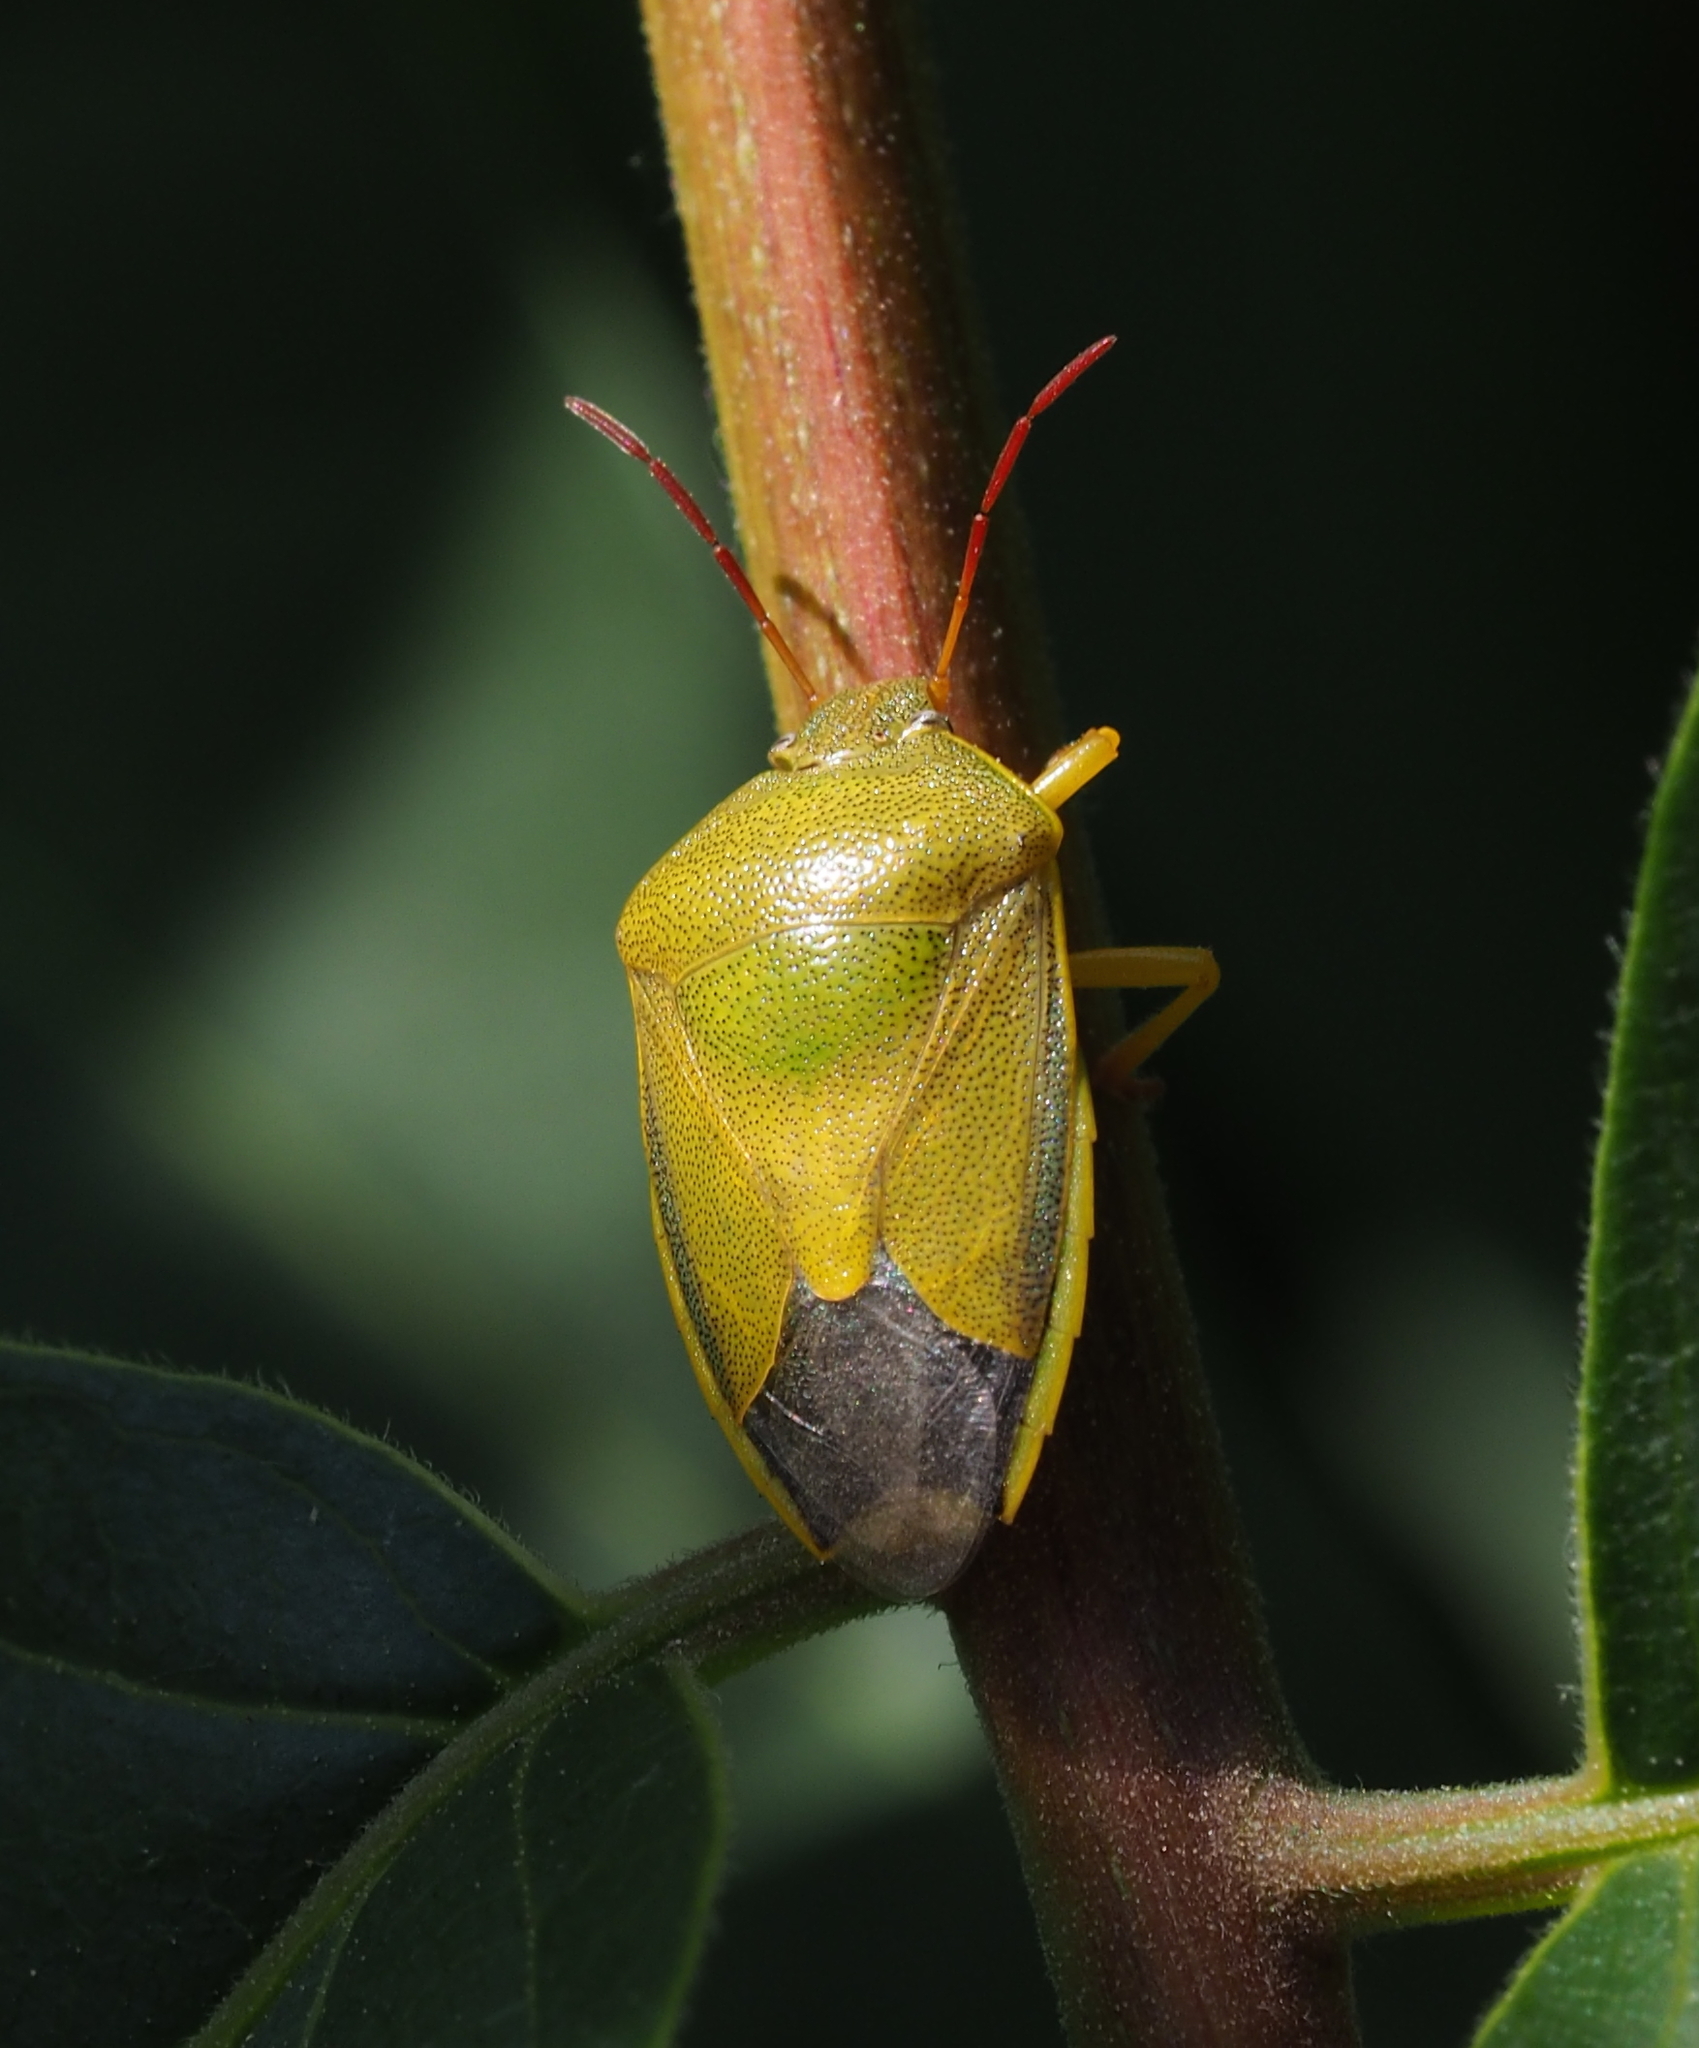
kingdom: Animalia
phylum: Arthropoda
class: Insecta
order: Hemiptera
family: Pentatomidae
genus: Piezodorus
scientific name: Piezodorus lituratus
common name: Stink bug
